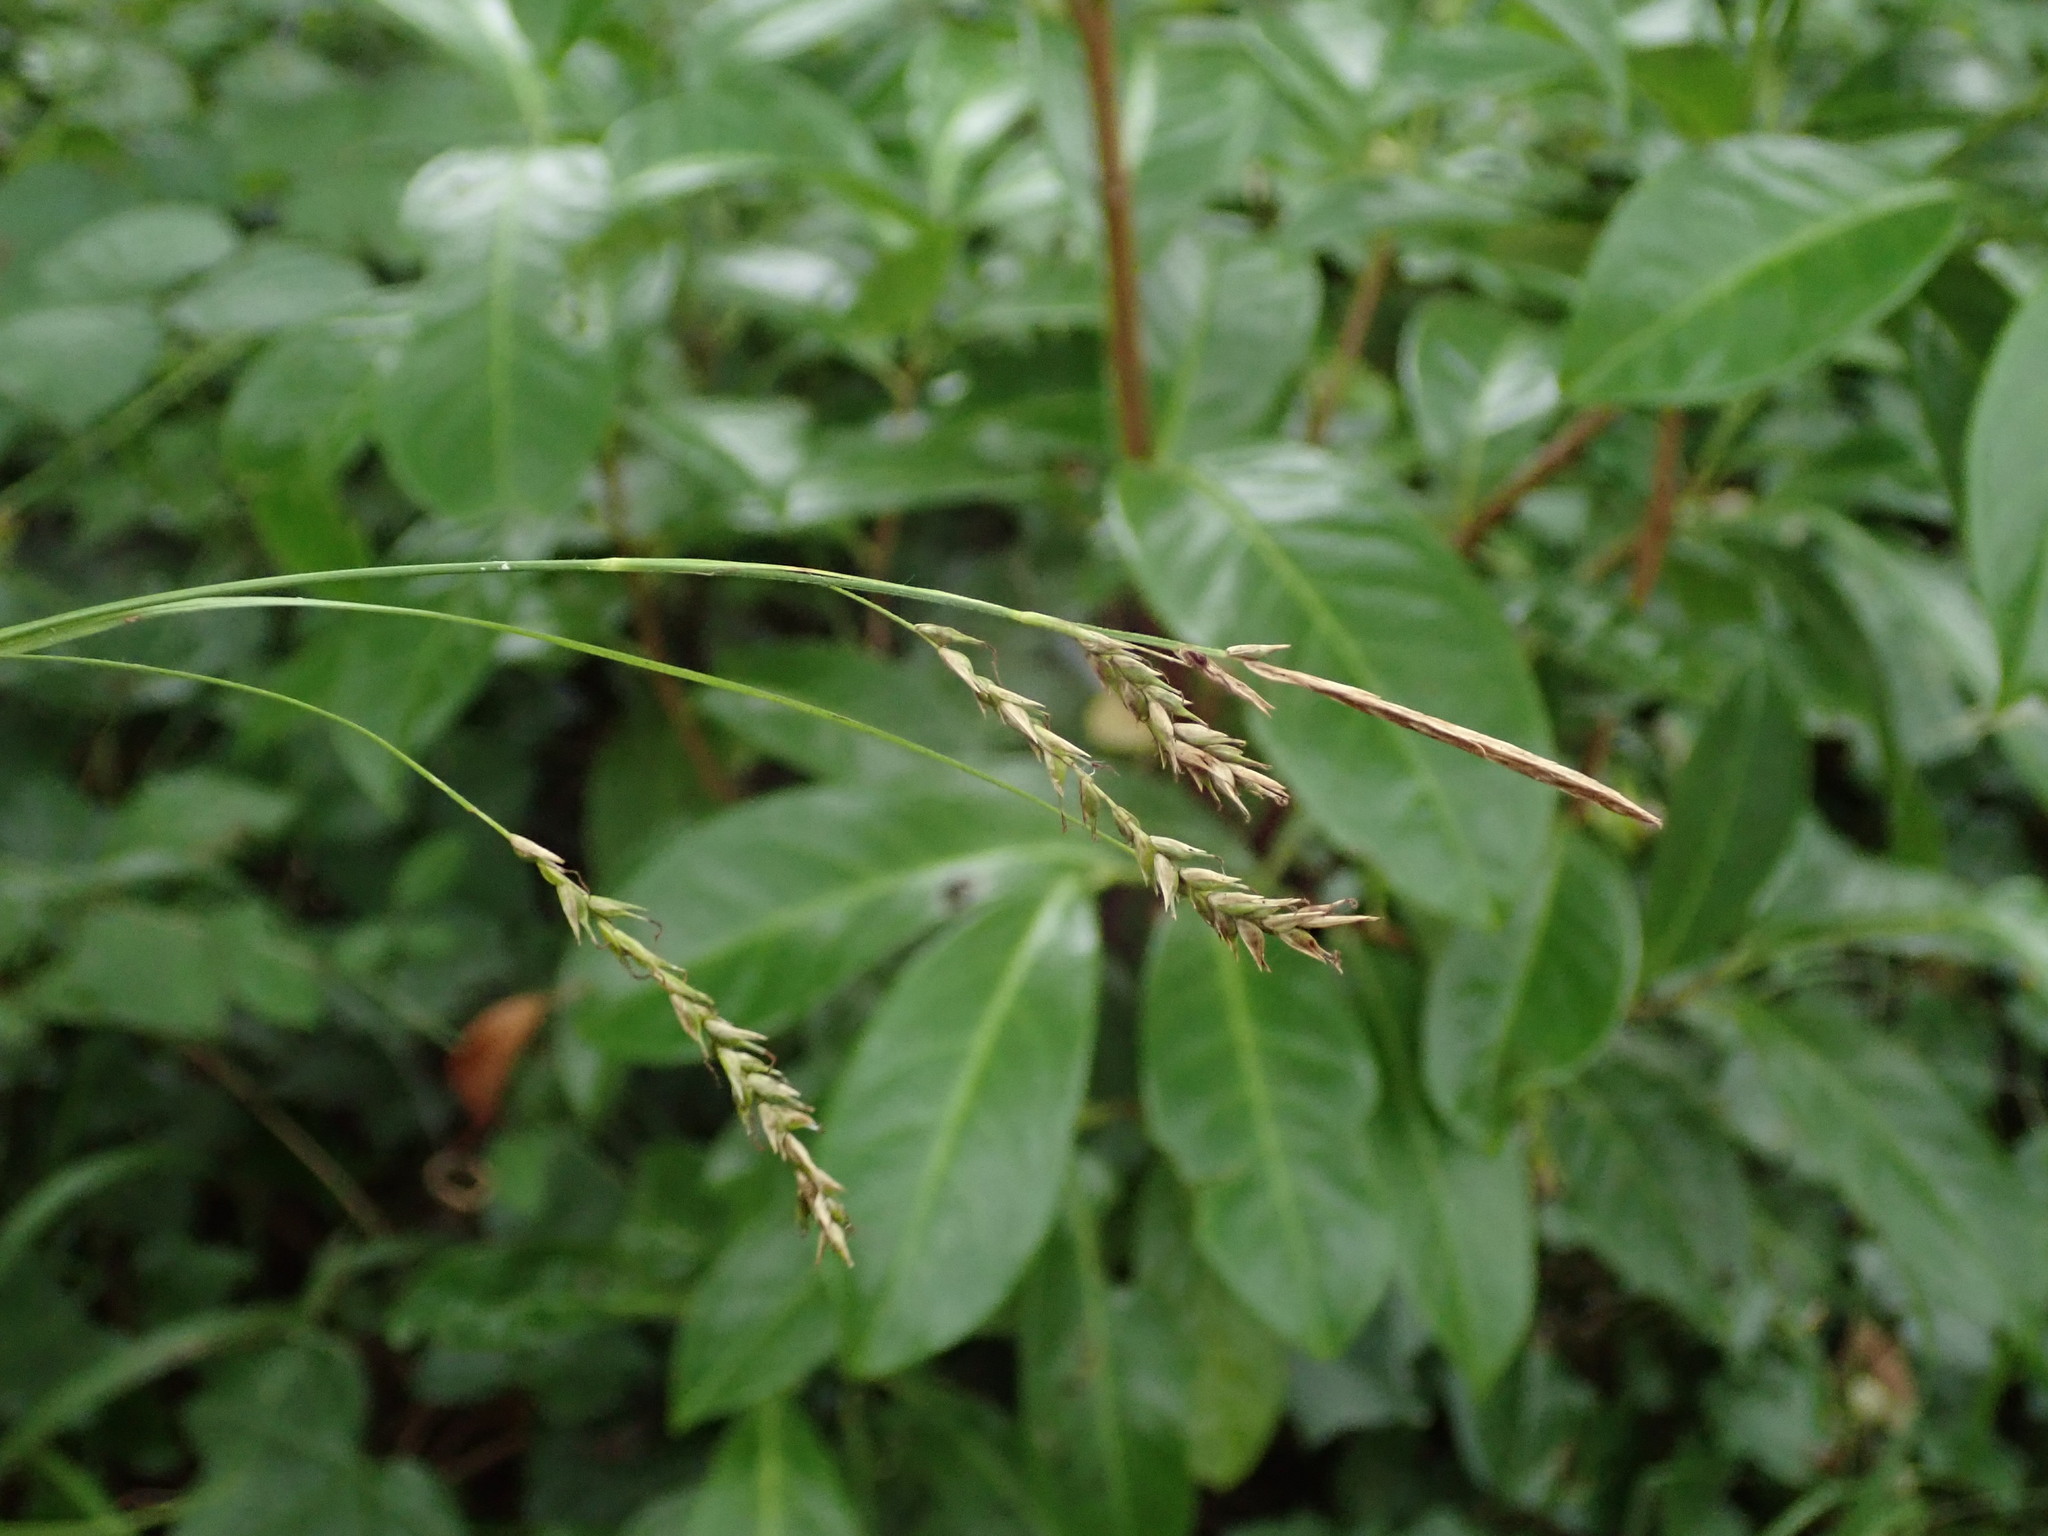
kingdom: Plantae
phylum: Tracheophyta
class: Liliopsida
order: Poales
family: Cyperaceae
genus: Carex
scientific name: Carex sylvatica
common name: Wood-sedge
